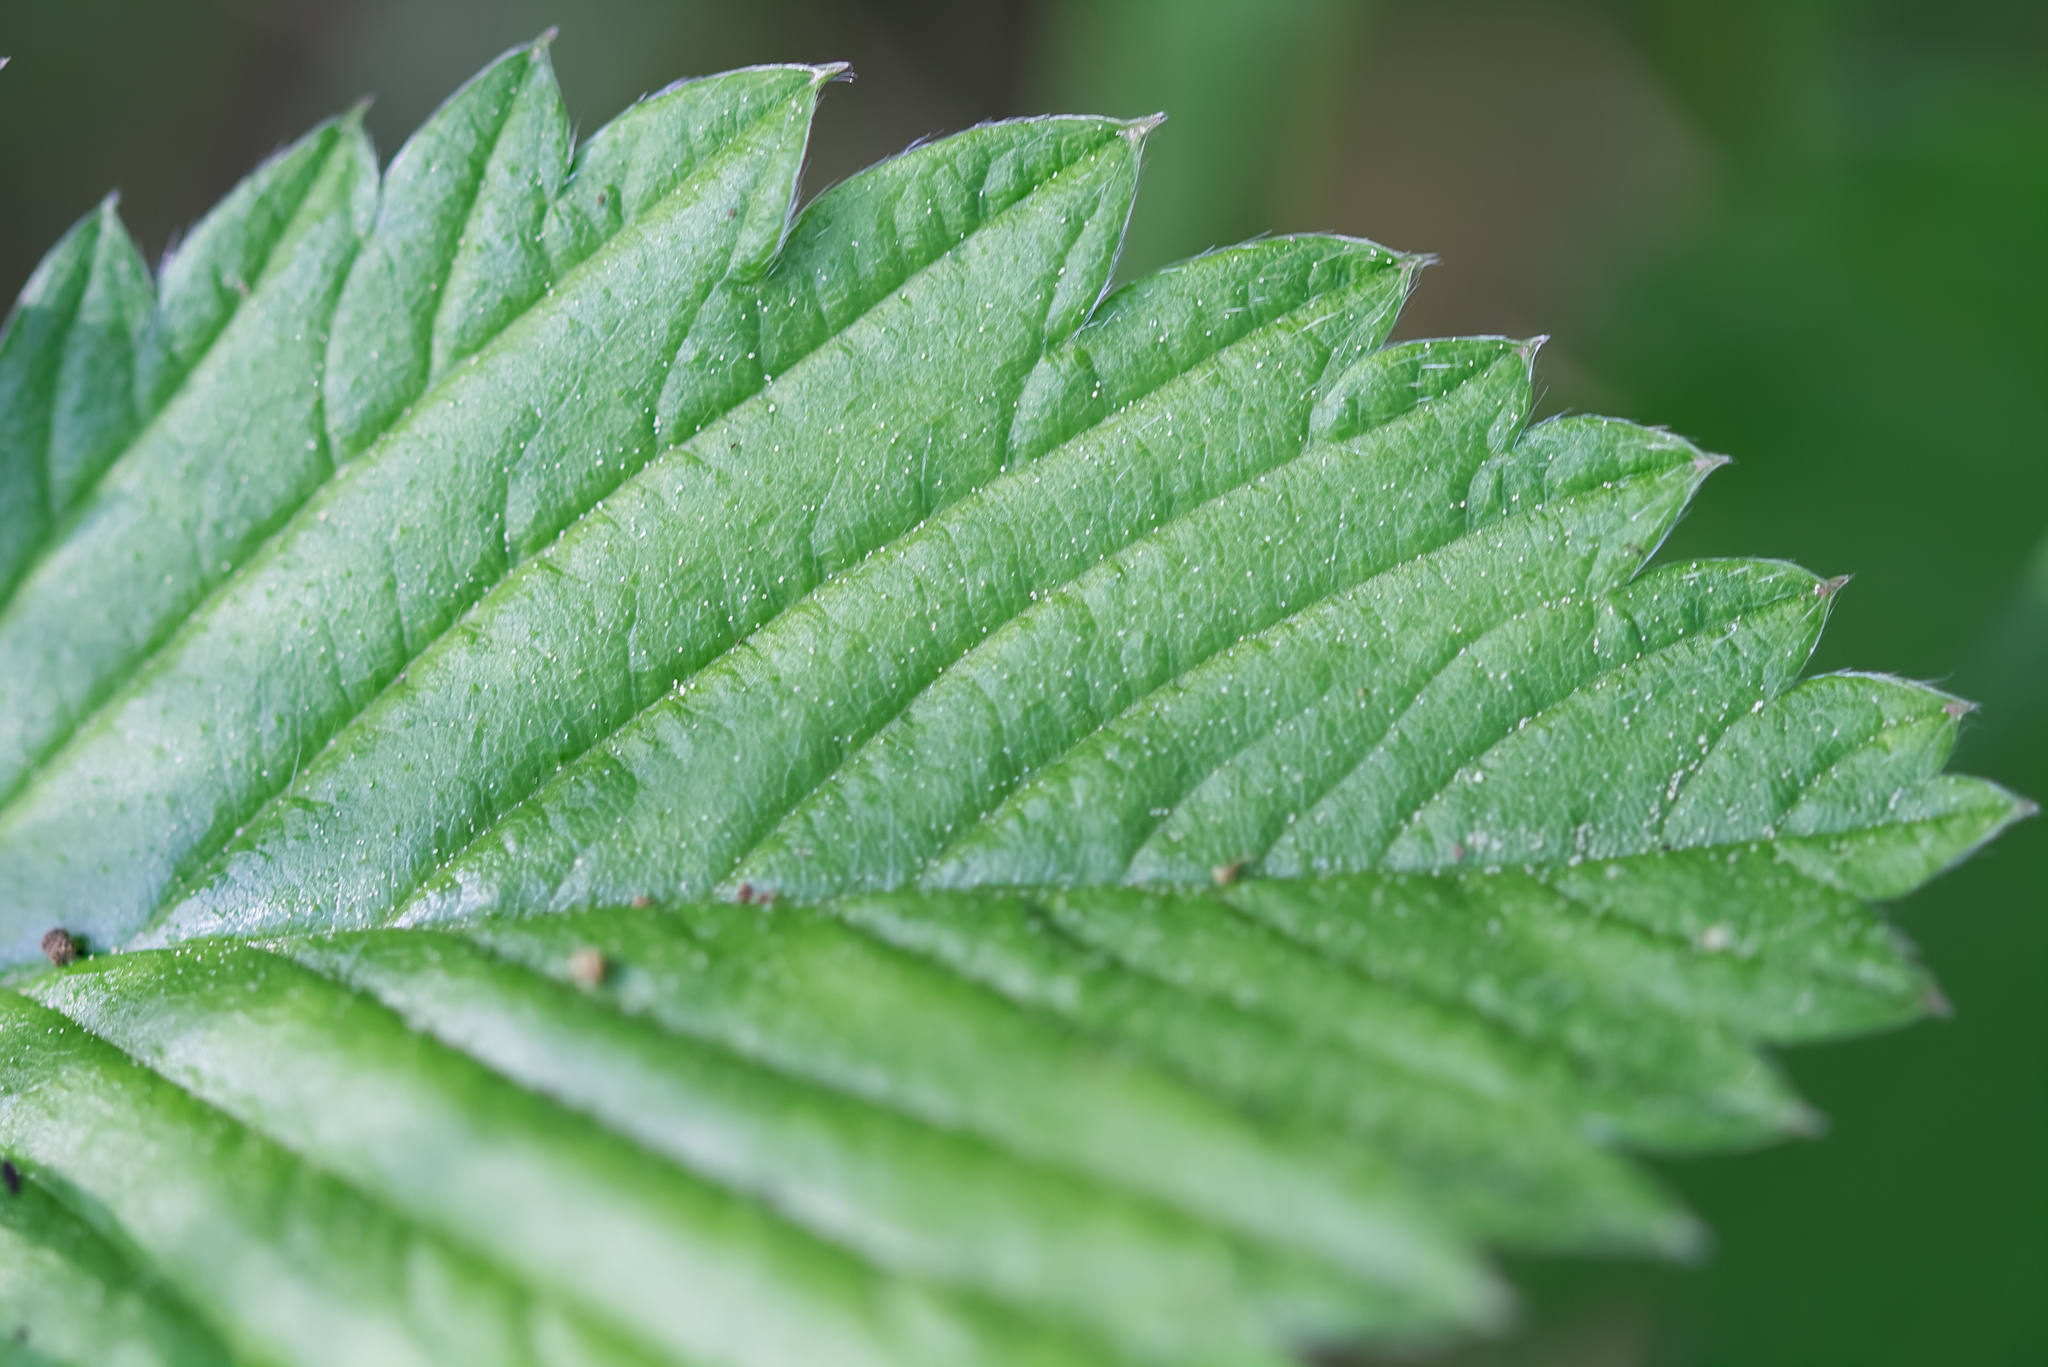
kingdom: Plantae
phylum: Tracheophyta
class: Magnoliopsida
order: Rosales
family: Rosaceae
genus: Fragaria
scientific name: Fragaria moschata
